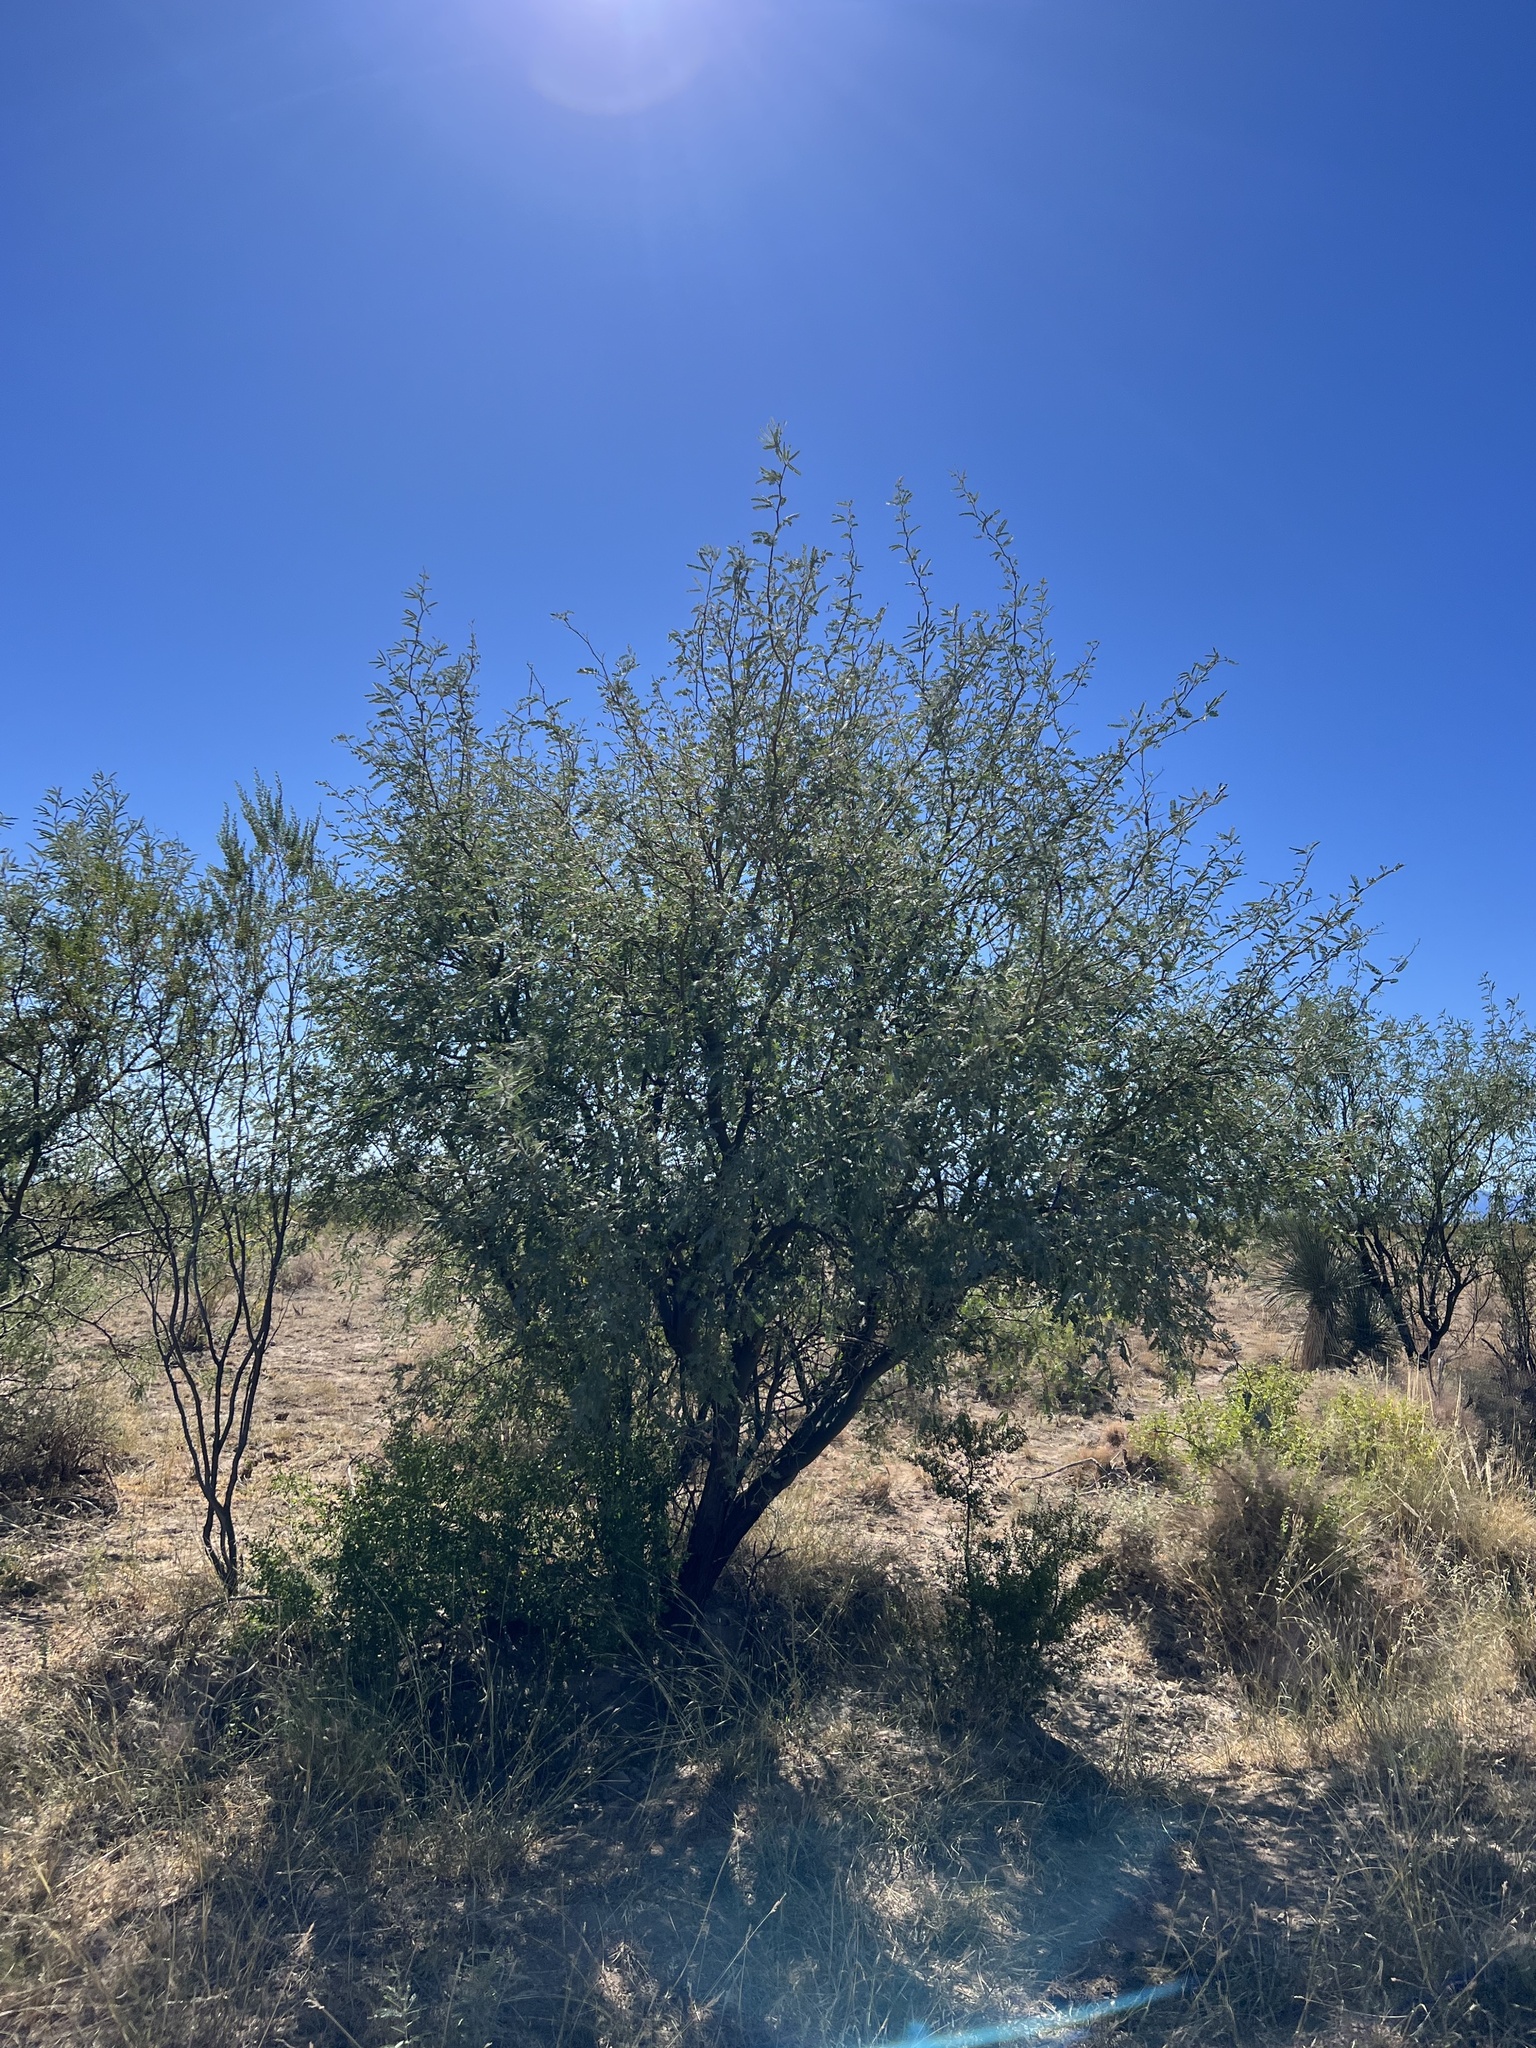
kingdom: Plantae
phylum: Tracheophyta
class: Magnoliopsida
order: Fabales
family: Fabaceae
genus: Prosopis
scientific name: Prosopis velutina
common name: Velvet mesquite
